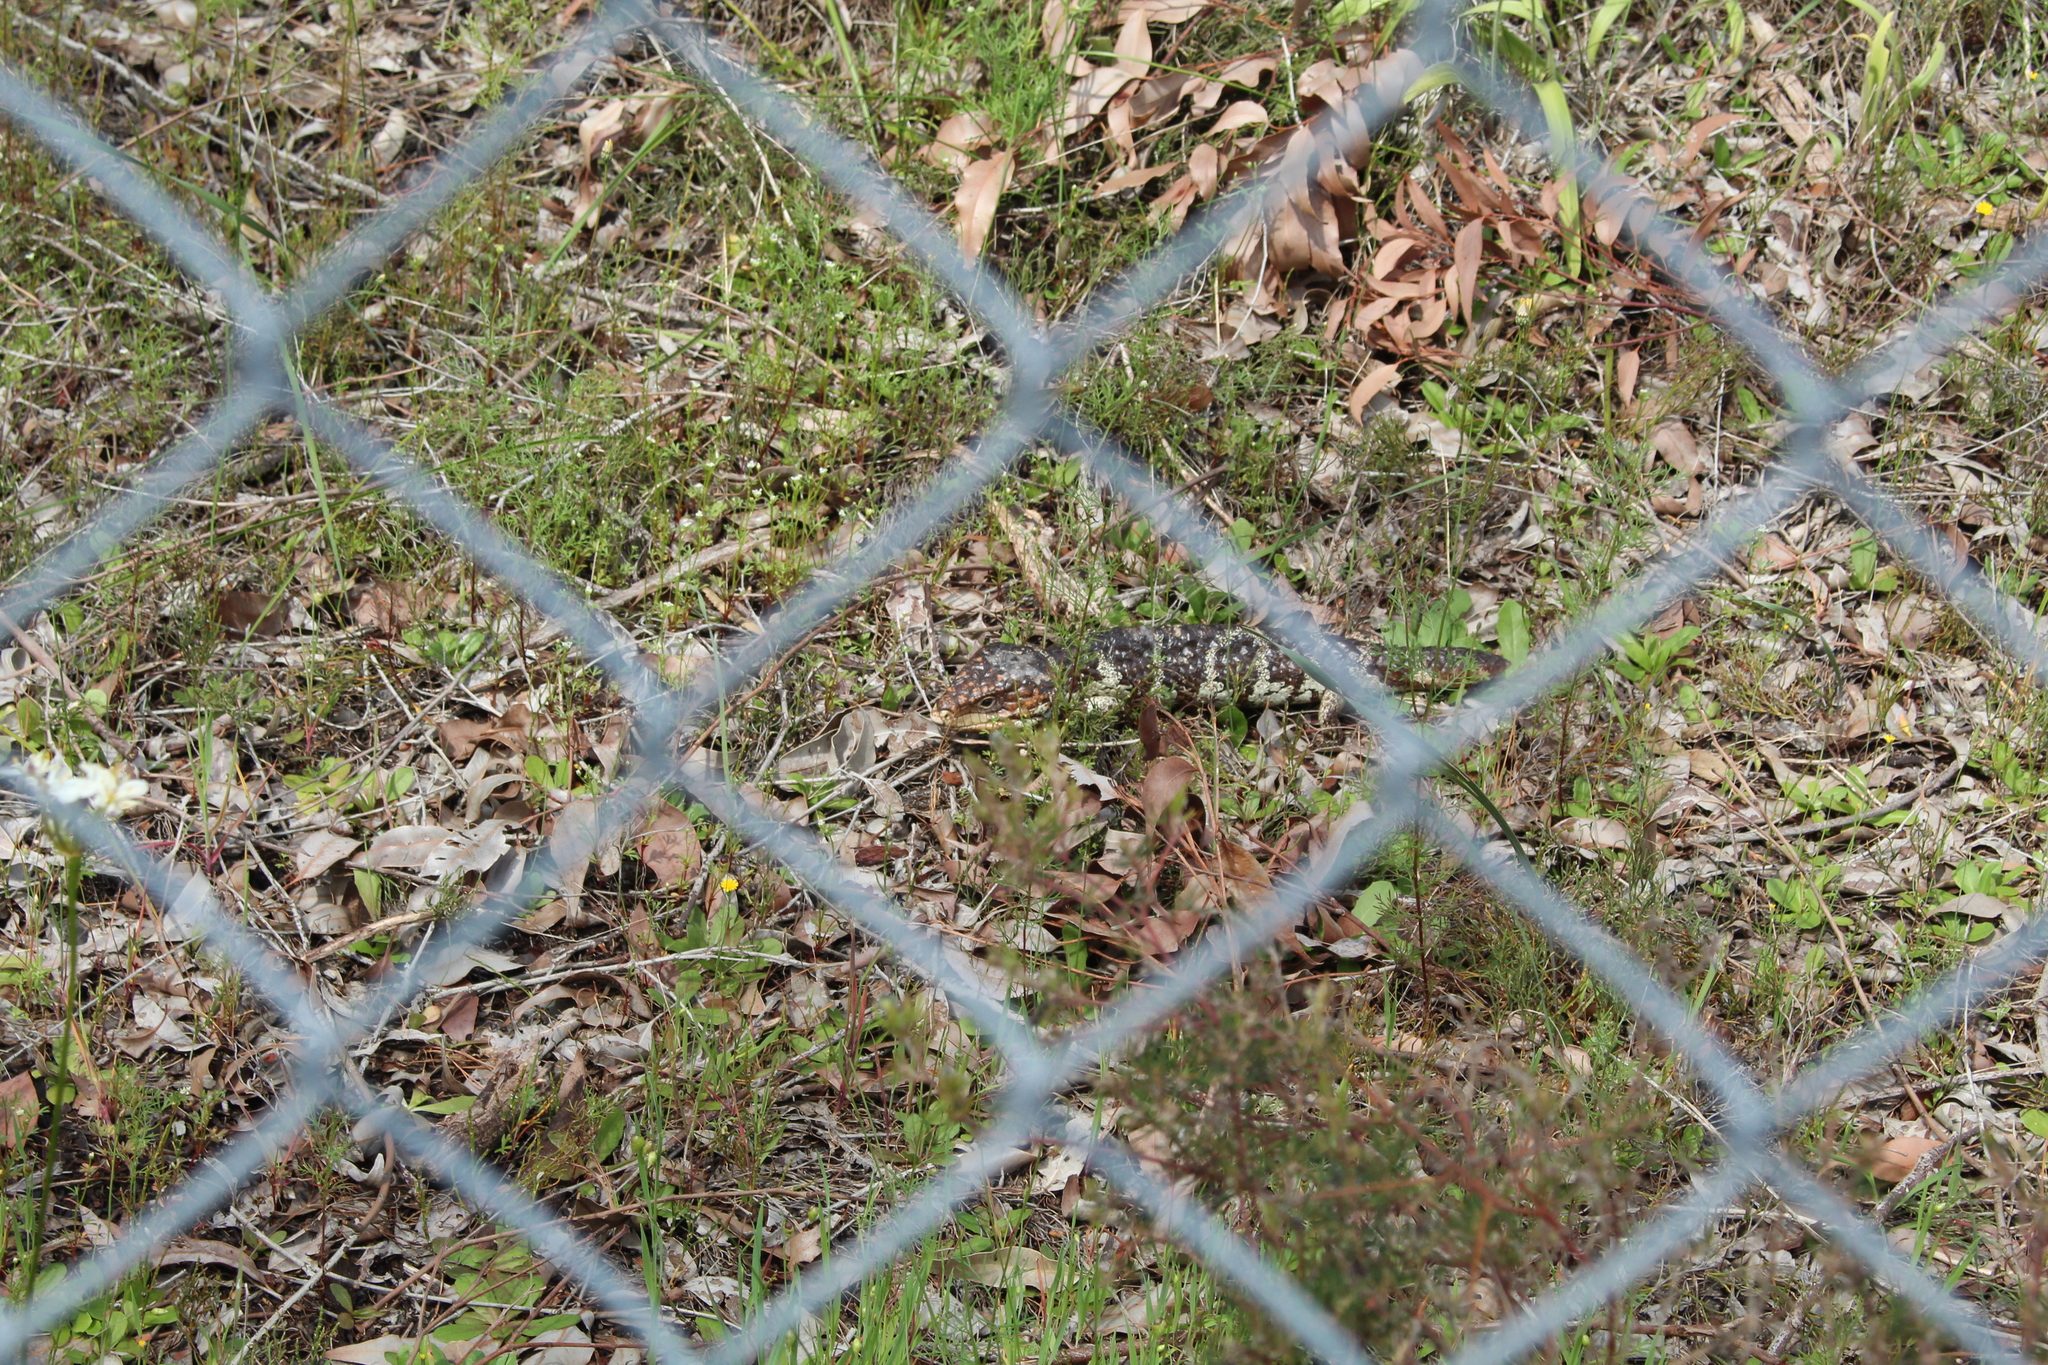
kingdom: Animalia
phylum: Chordata
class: Squamata
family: Scincidae
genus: Tiliqua
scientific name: Tiliqua rugosa
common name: Pinecone lizard
